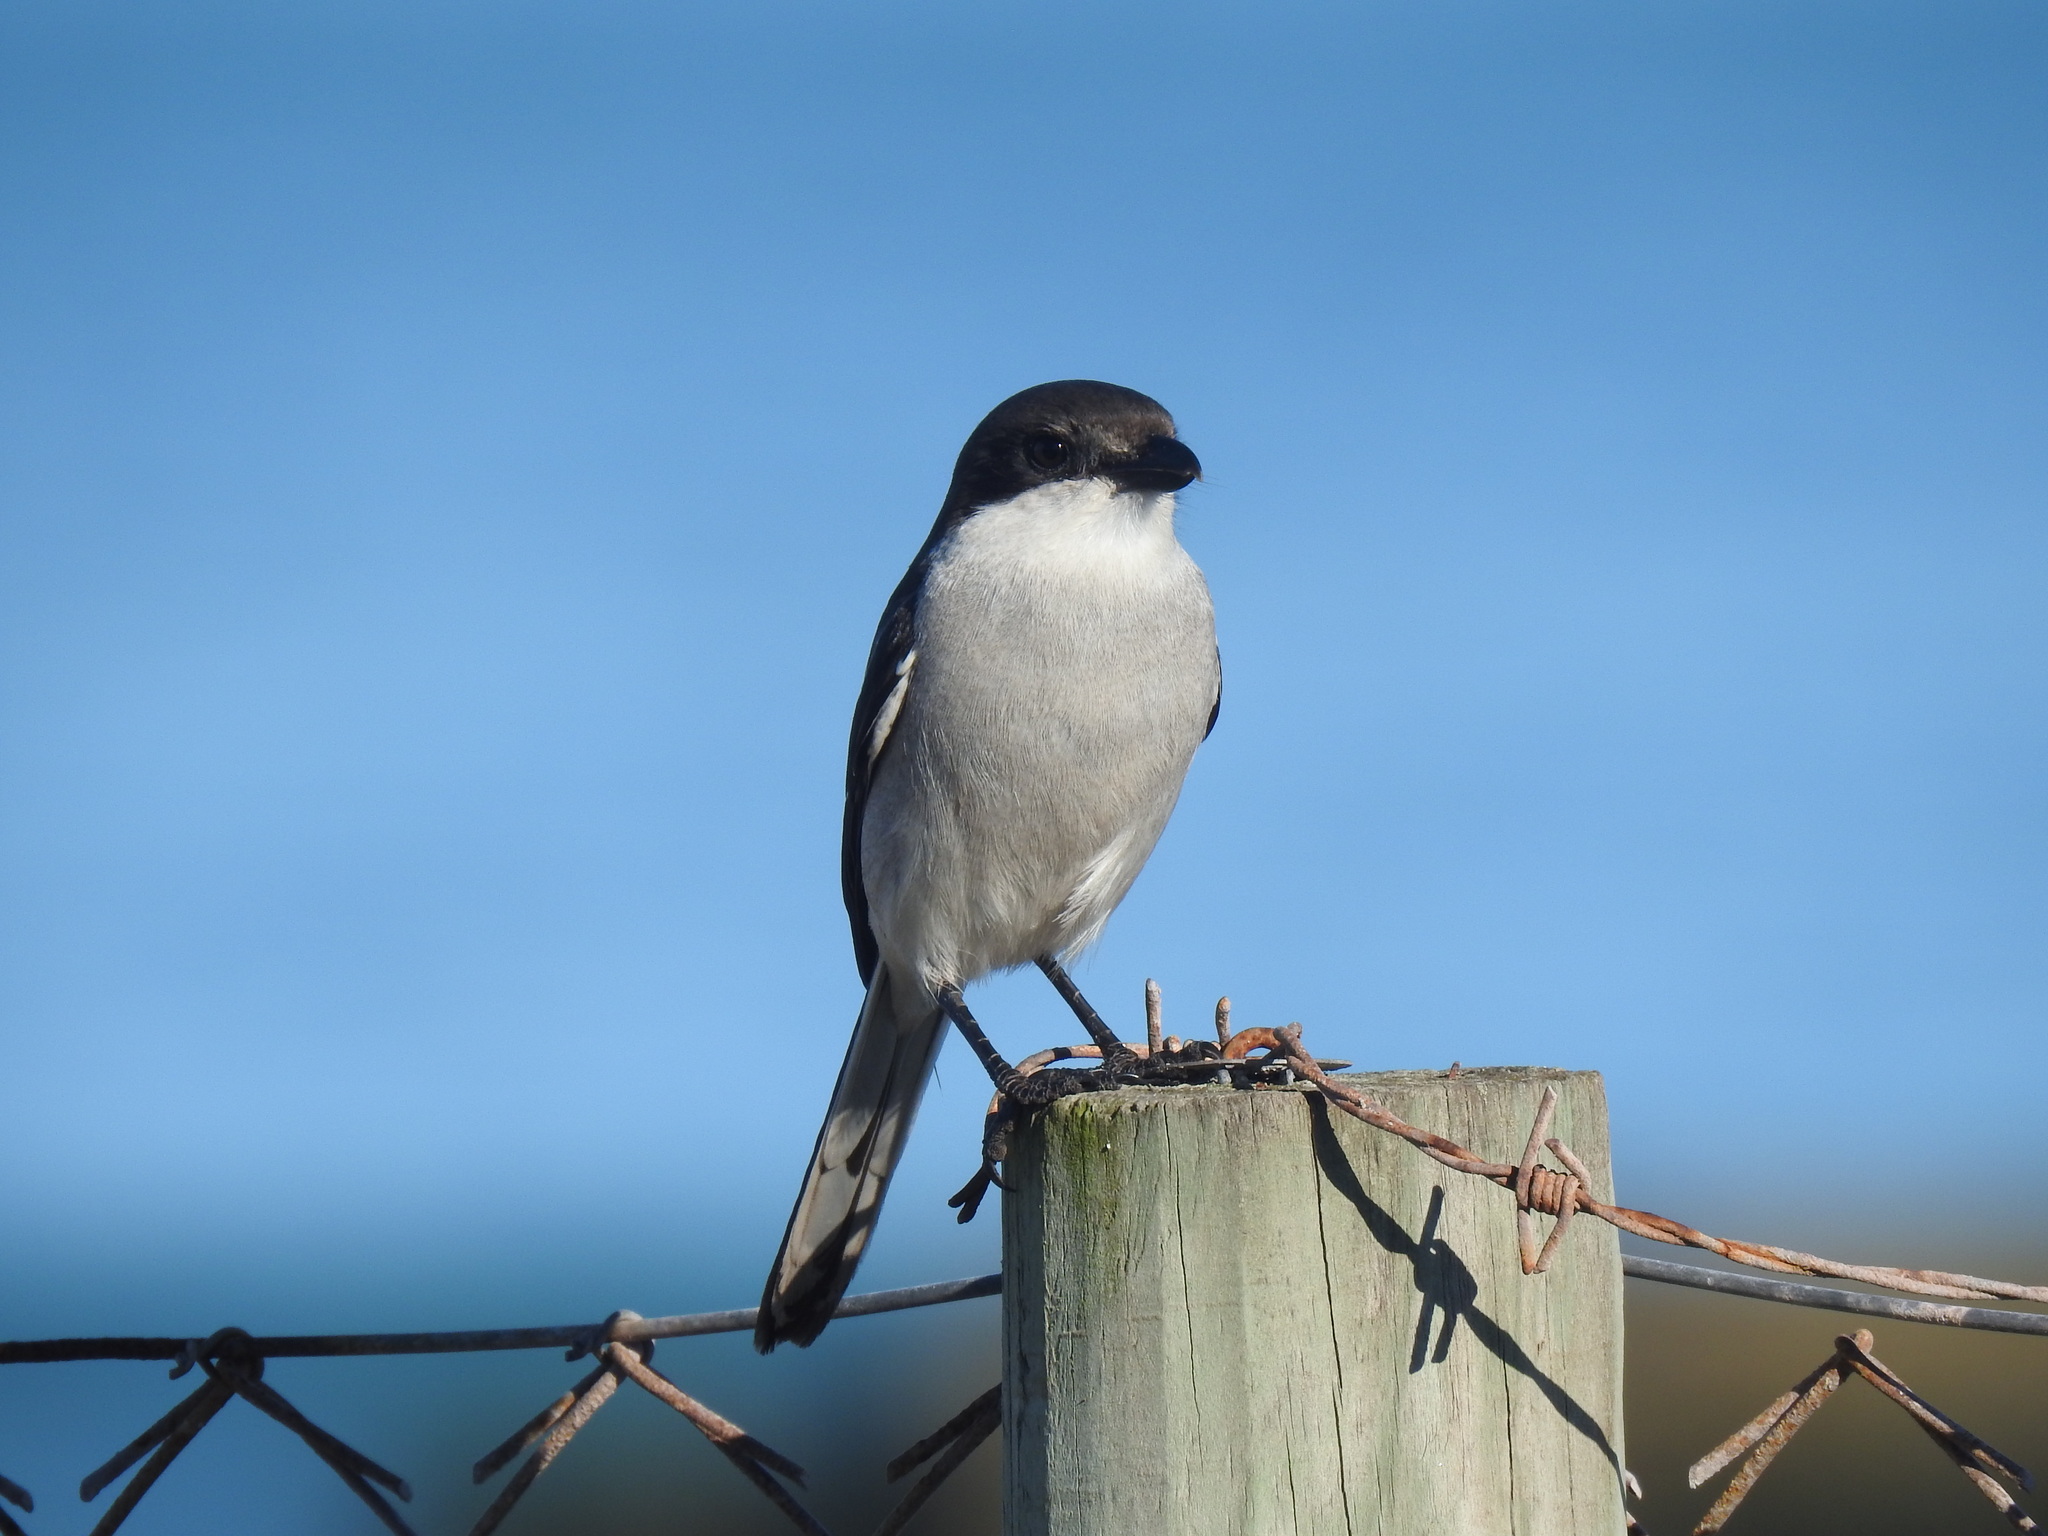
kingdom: Animalia
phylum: Chordata
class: Aves
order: Passeriformes
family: Laniidae
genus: Lanius
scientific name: Lanius collaris
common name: Southern fiscal
